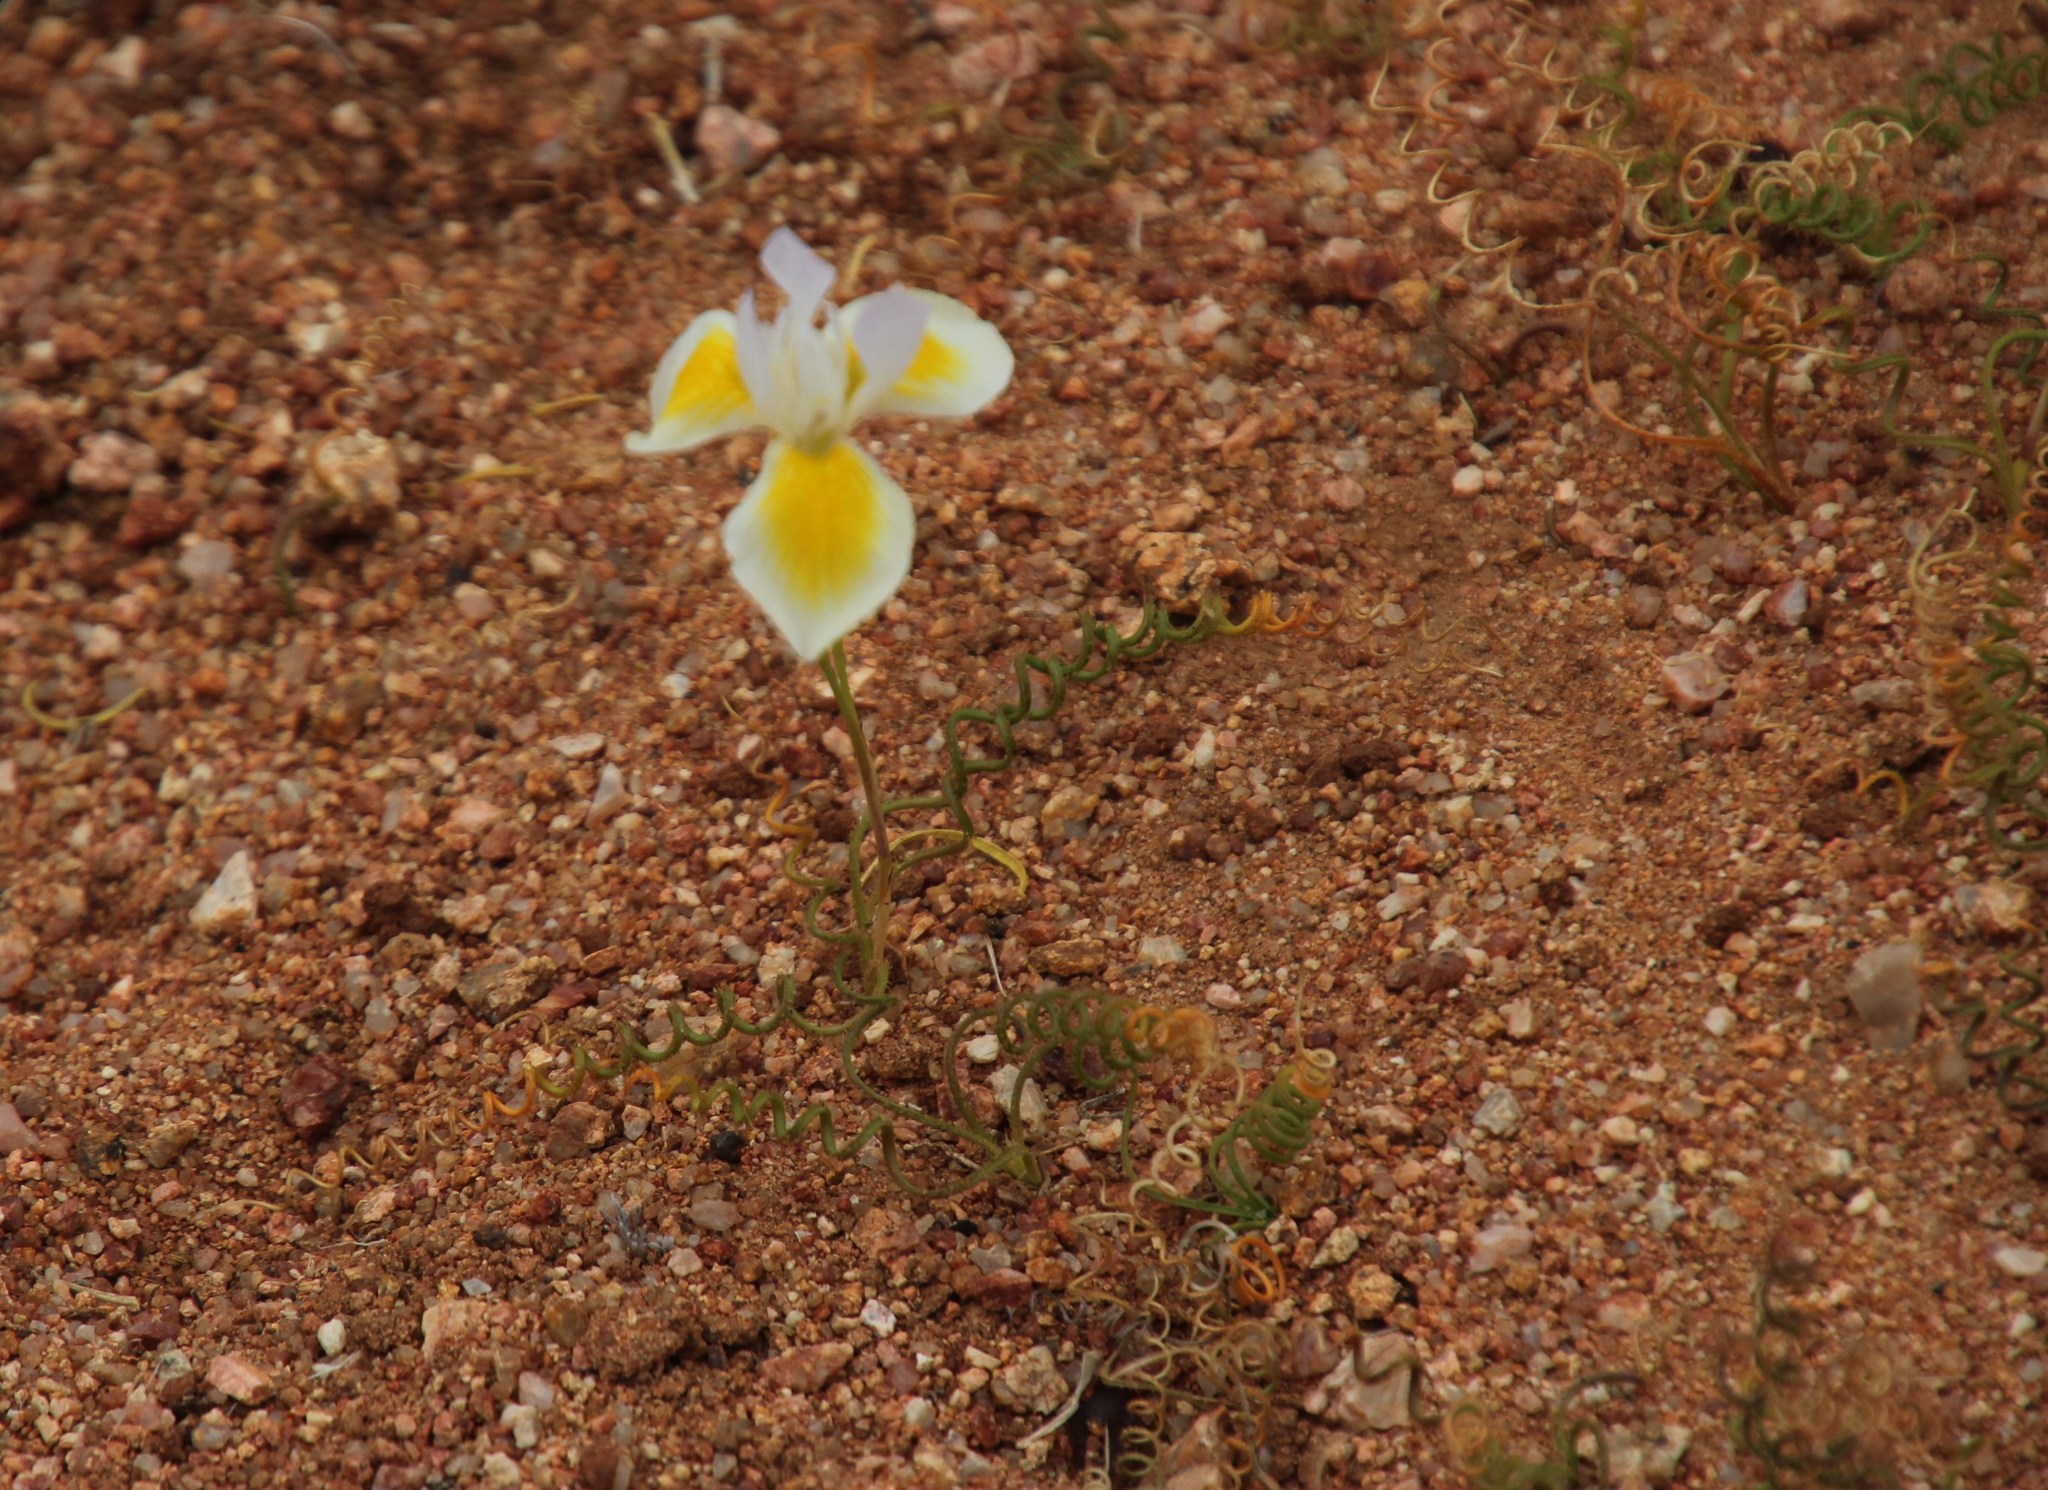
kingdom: Plantae
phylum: Tracheophyta
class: Liliopsida
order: Asparagales
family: Iridaceae
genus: Moraea
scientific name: Moraea serpentina
